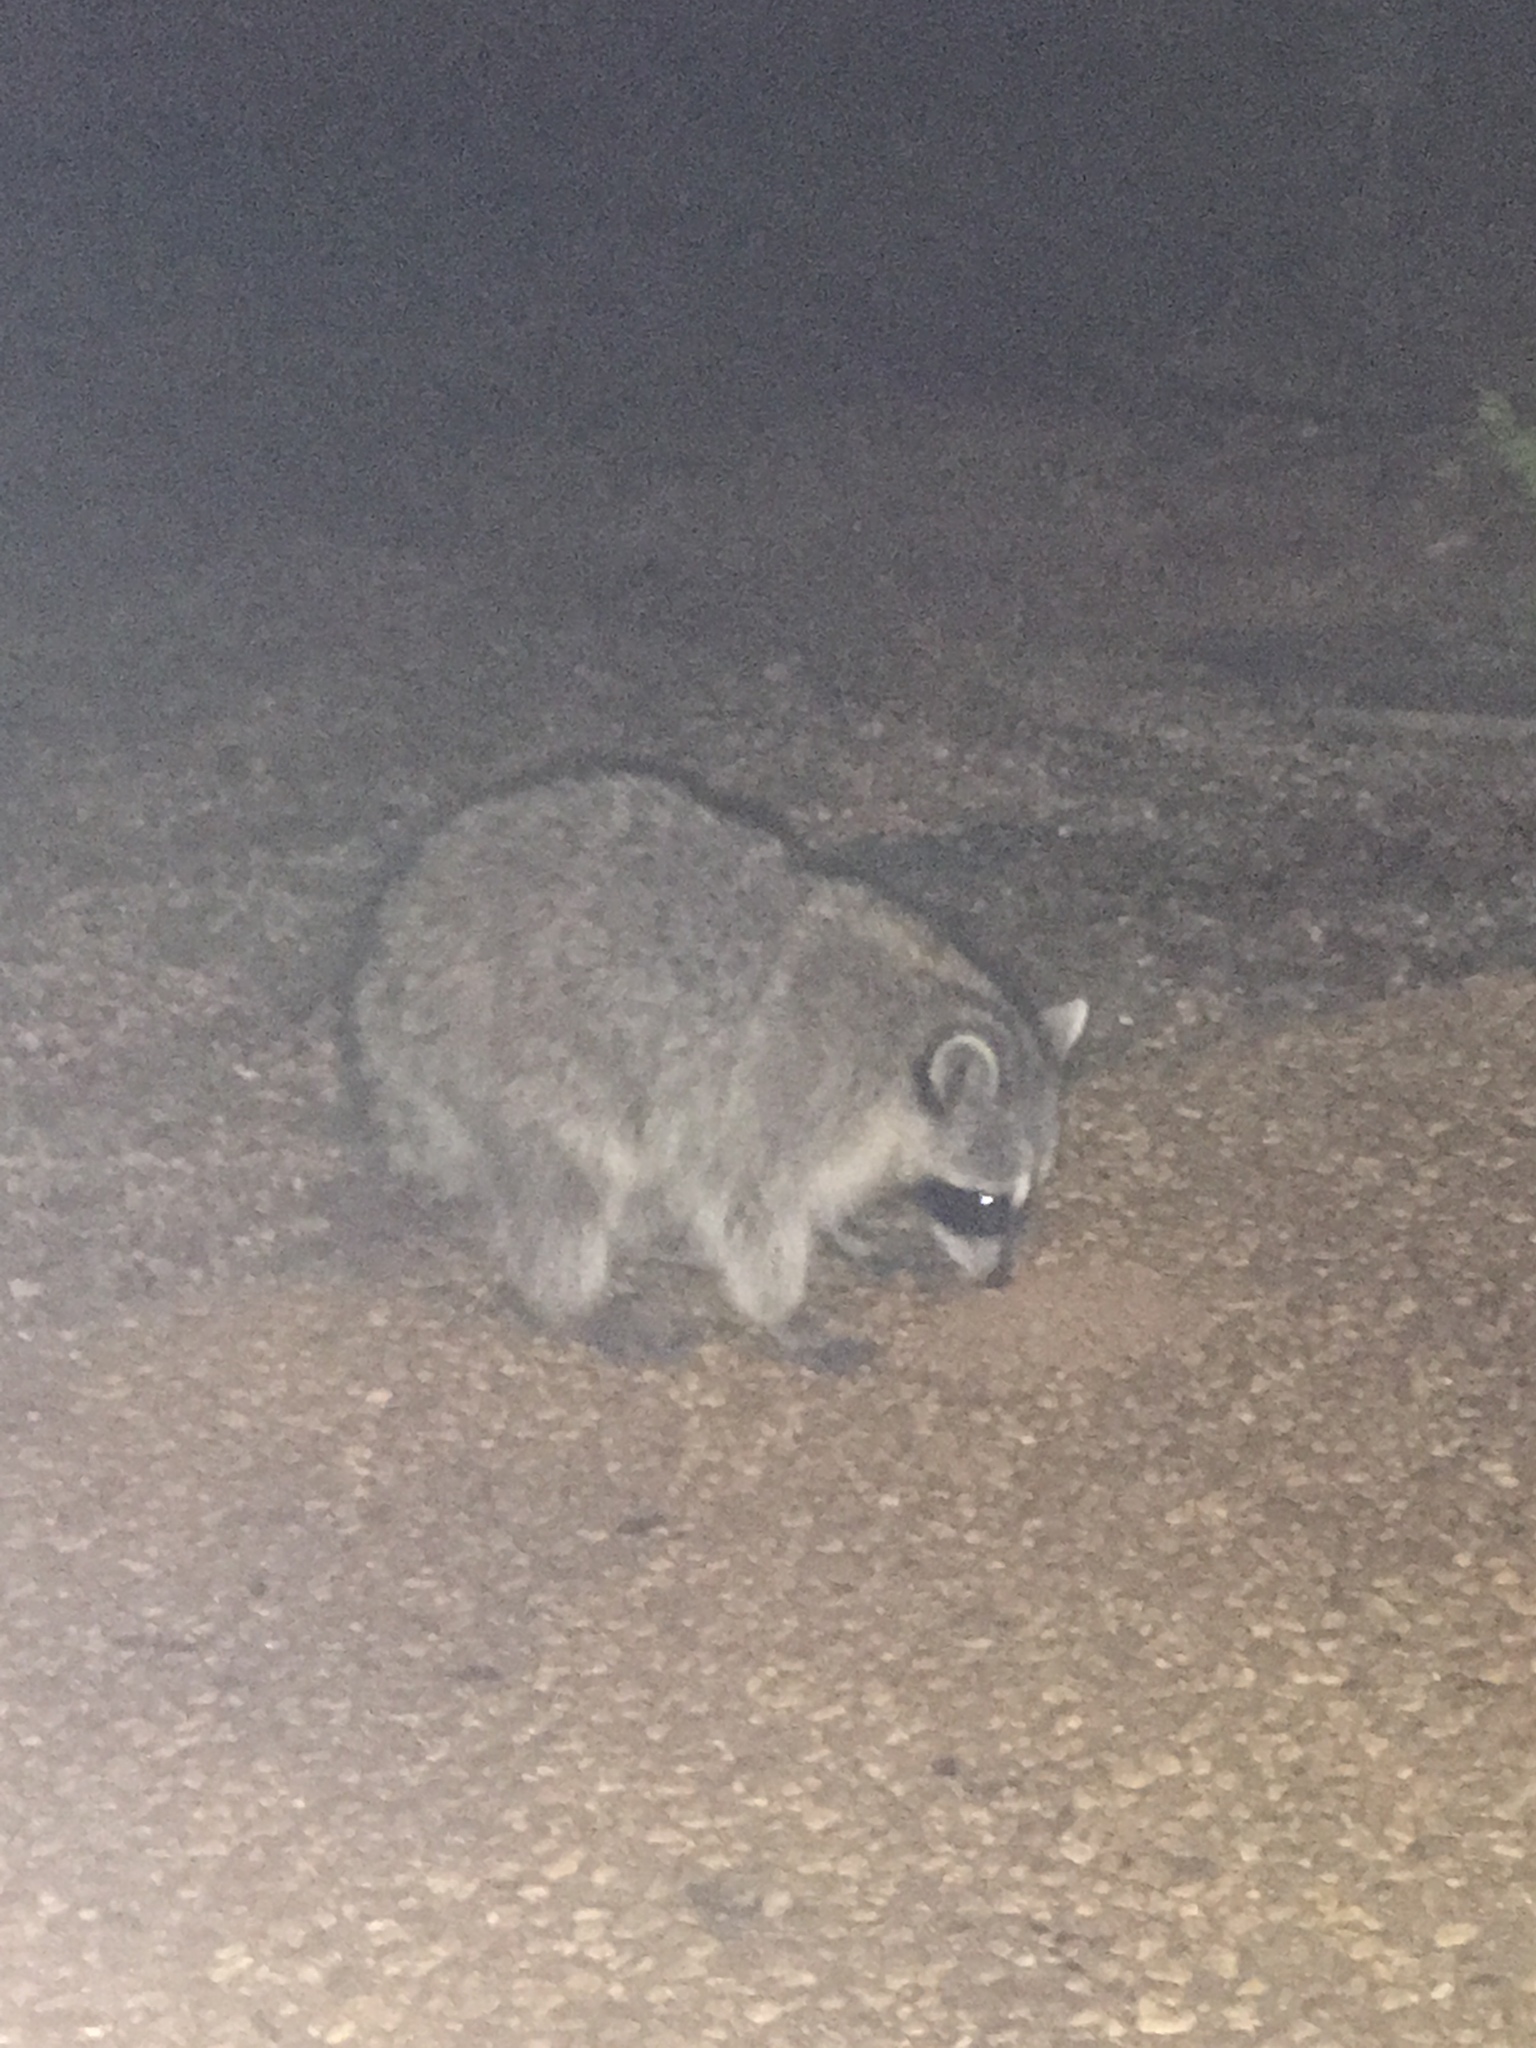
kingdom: Animalia
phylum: Chordata
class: Mammalia
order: Carnivora
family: Procyonidae
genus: Procyon
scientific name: Procyon lotor
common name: Raccoon
